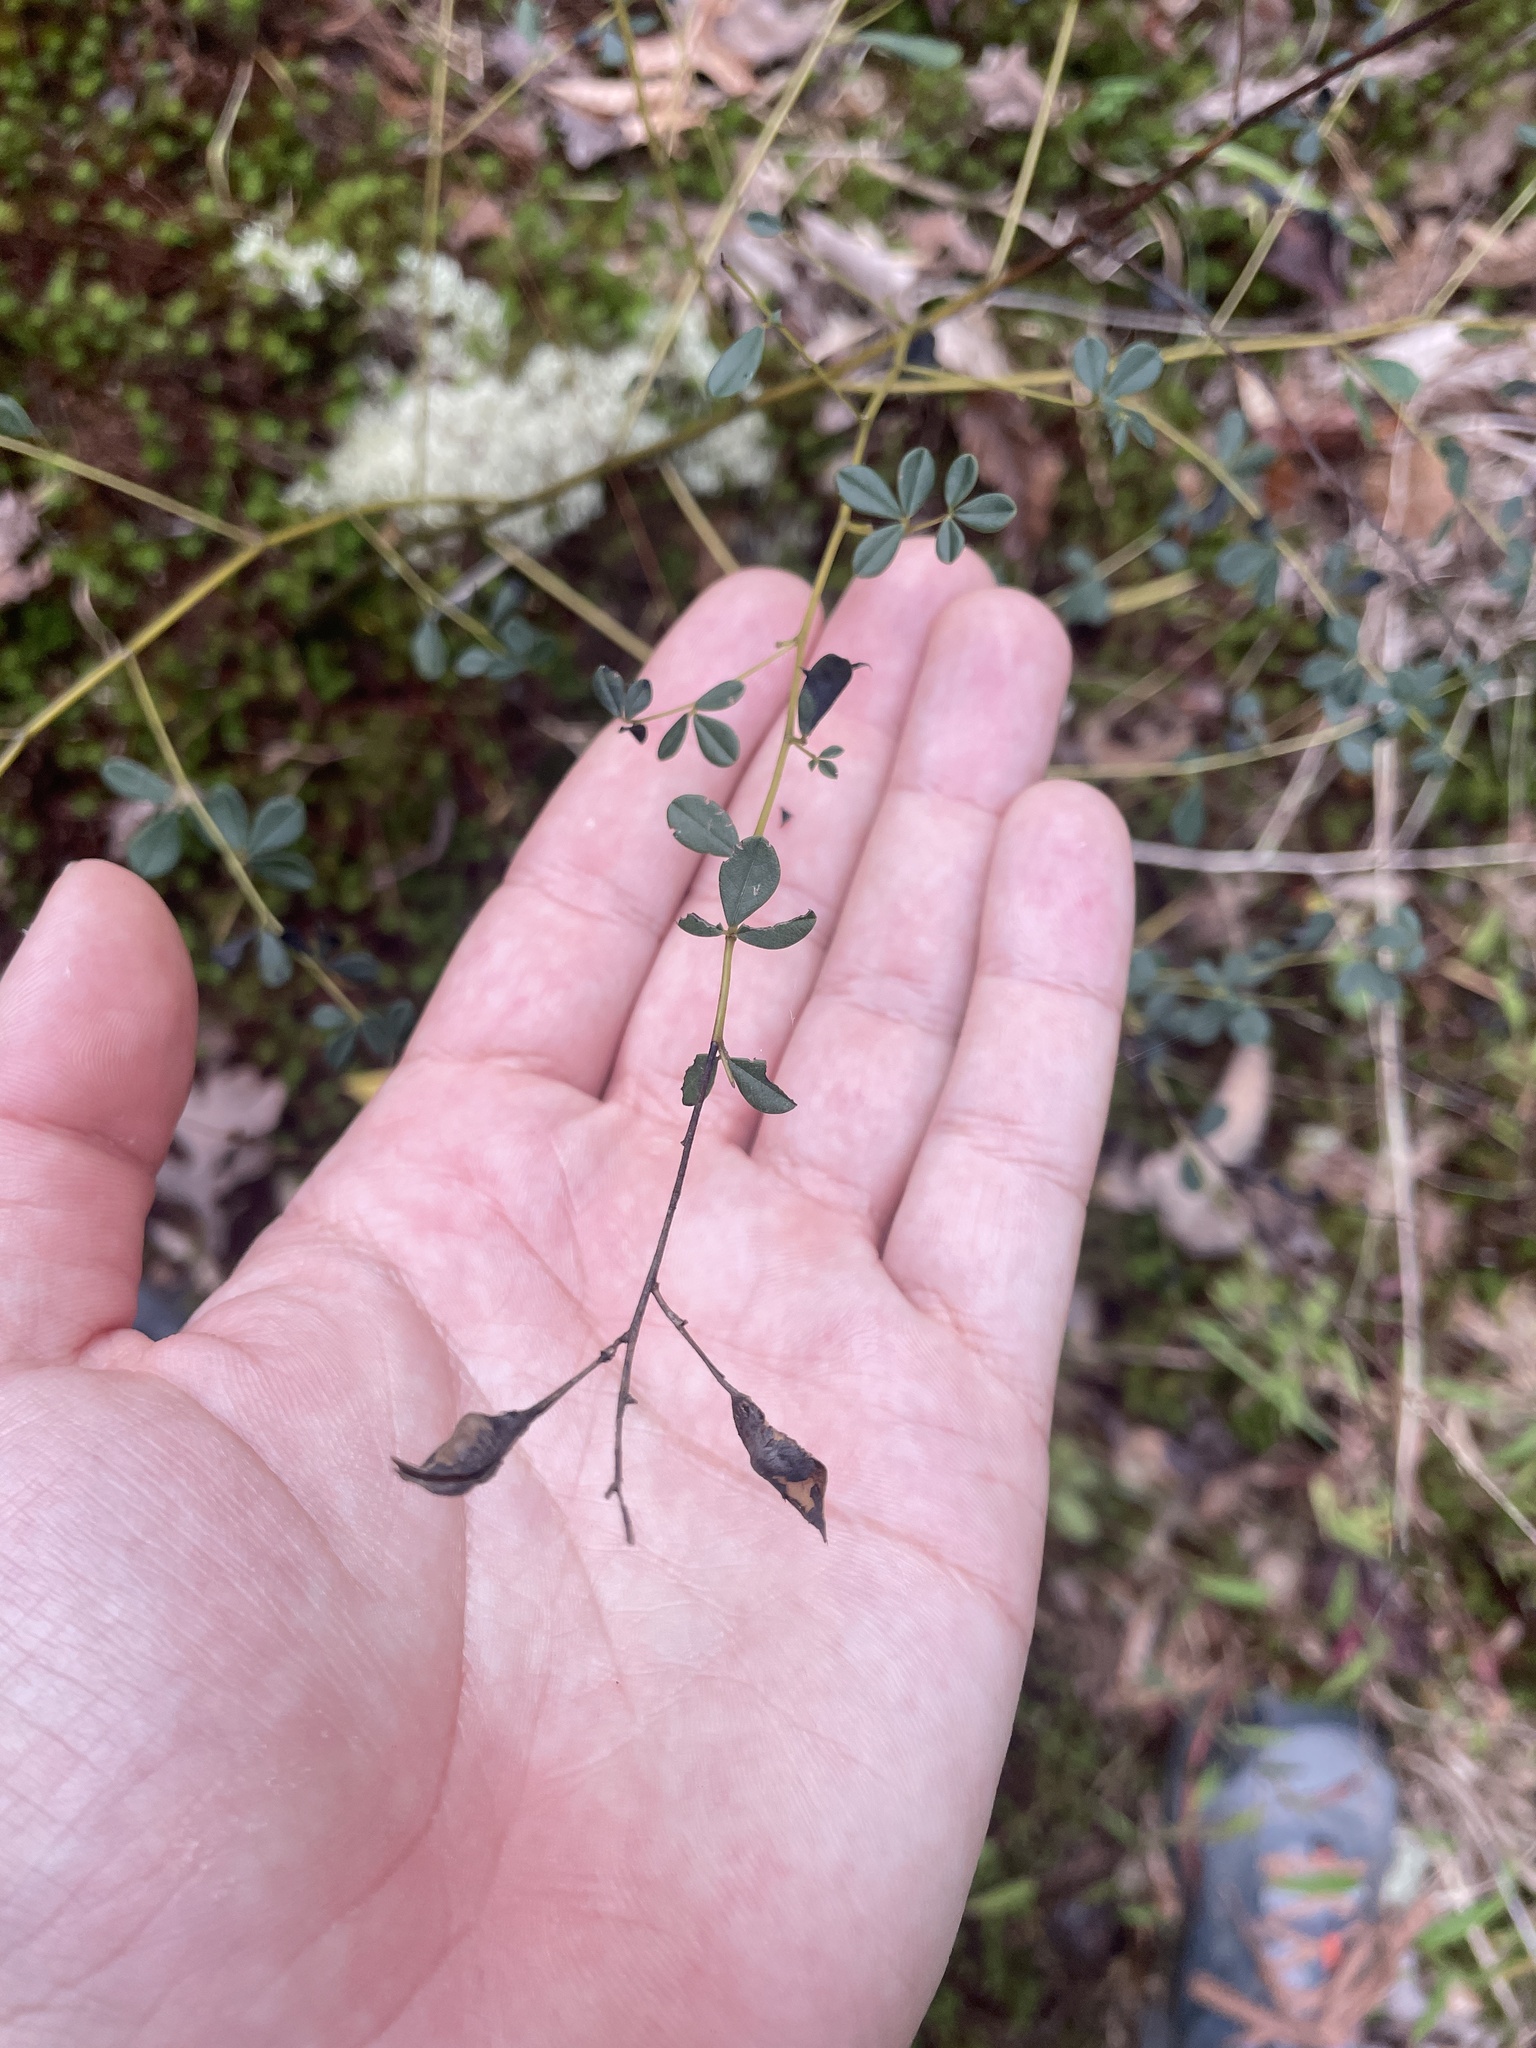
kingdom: Plantae
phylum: Tracheophyta
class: Magnoliopsida
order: Fabales
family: Fabaceae
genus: Baptisia
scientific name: Baptisia tinctoria
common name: Wild indigo
